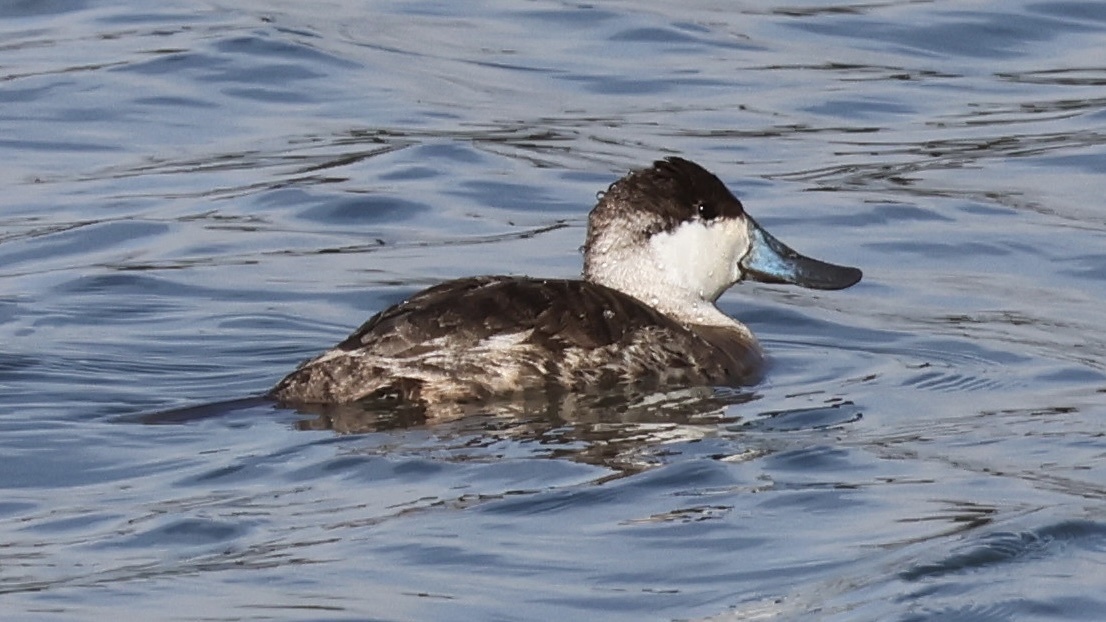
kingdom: Animalia
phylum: Chordata
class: Aves
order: Anseriformes
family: Anatidae
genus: Oxyura
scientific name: Oxyura jamaicensis
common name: Ruddy duck
